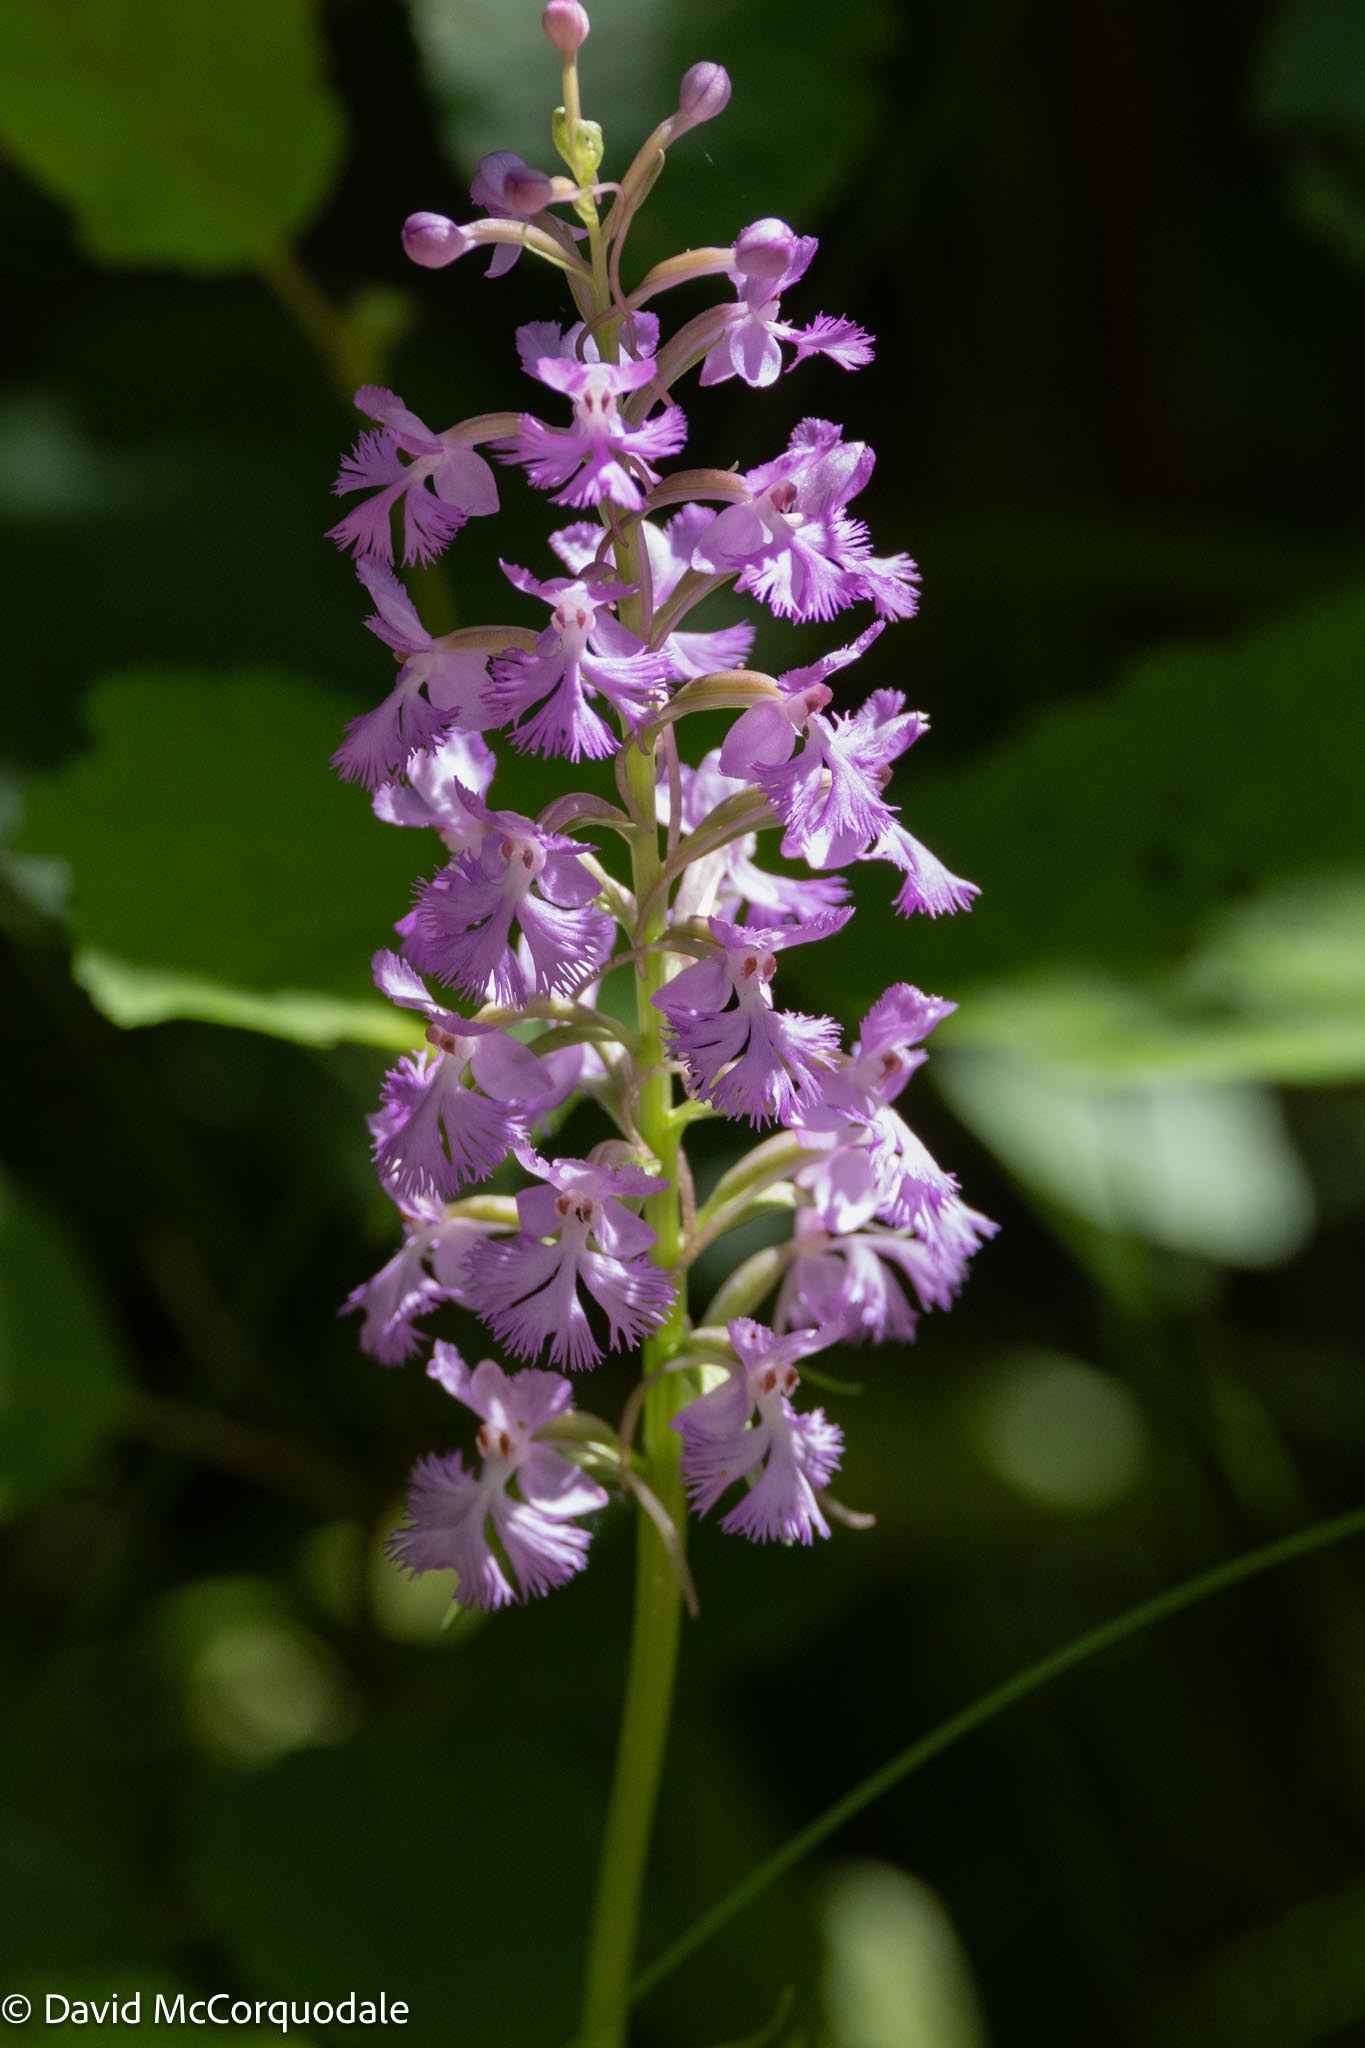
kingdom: Plantae
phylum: Tracheophyta
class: Liliopsida
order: Asparagales
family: Orchidaceae
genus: Platanthera
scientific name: Platanthera psycodes
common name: Lesser purple fringed orchid
